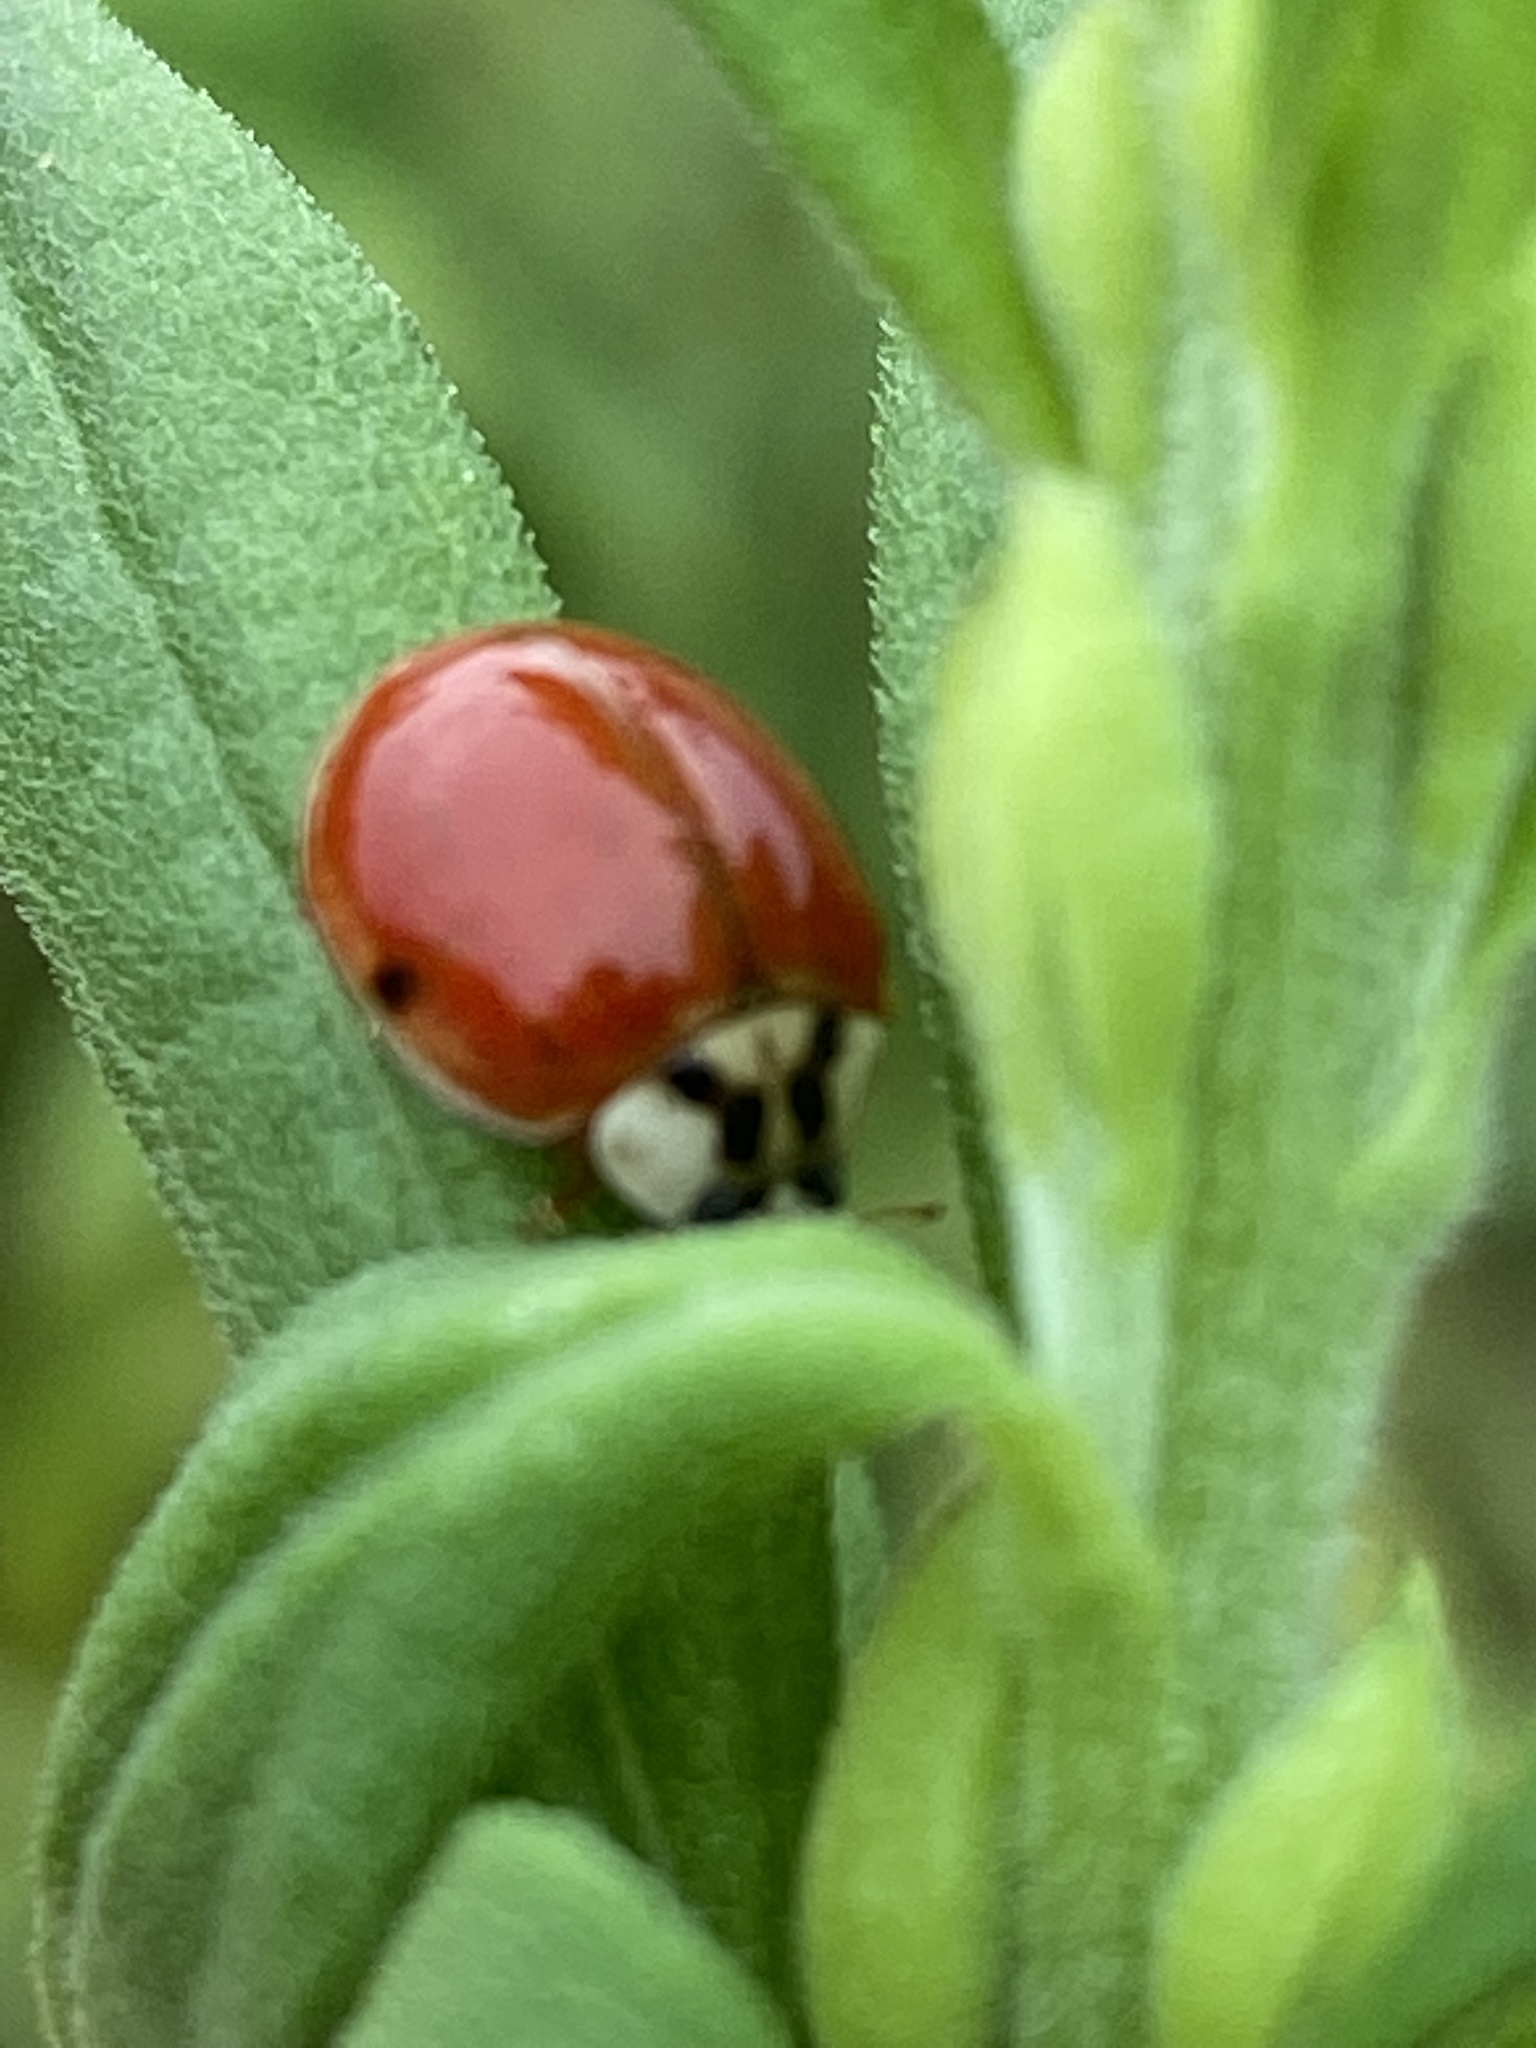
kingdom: Animalia
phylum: Arthropoda
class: Insecta
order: Coleoptera
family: Coccinellidae
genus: Harmonia
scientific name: Harmonia axyridis
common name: Harlequin ladybird
